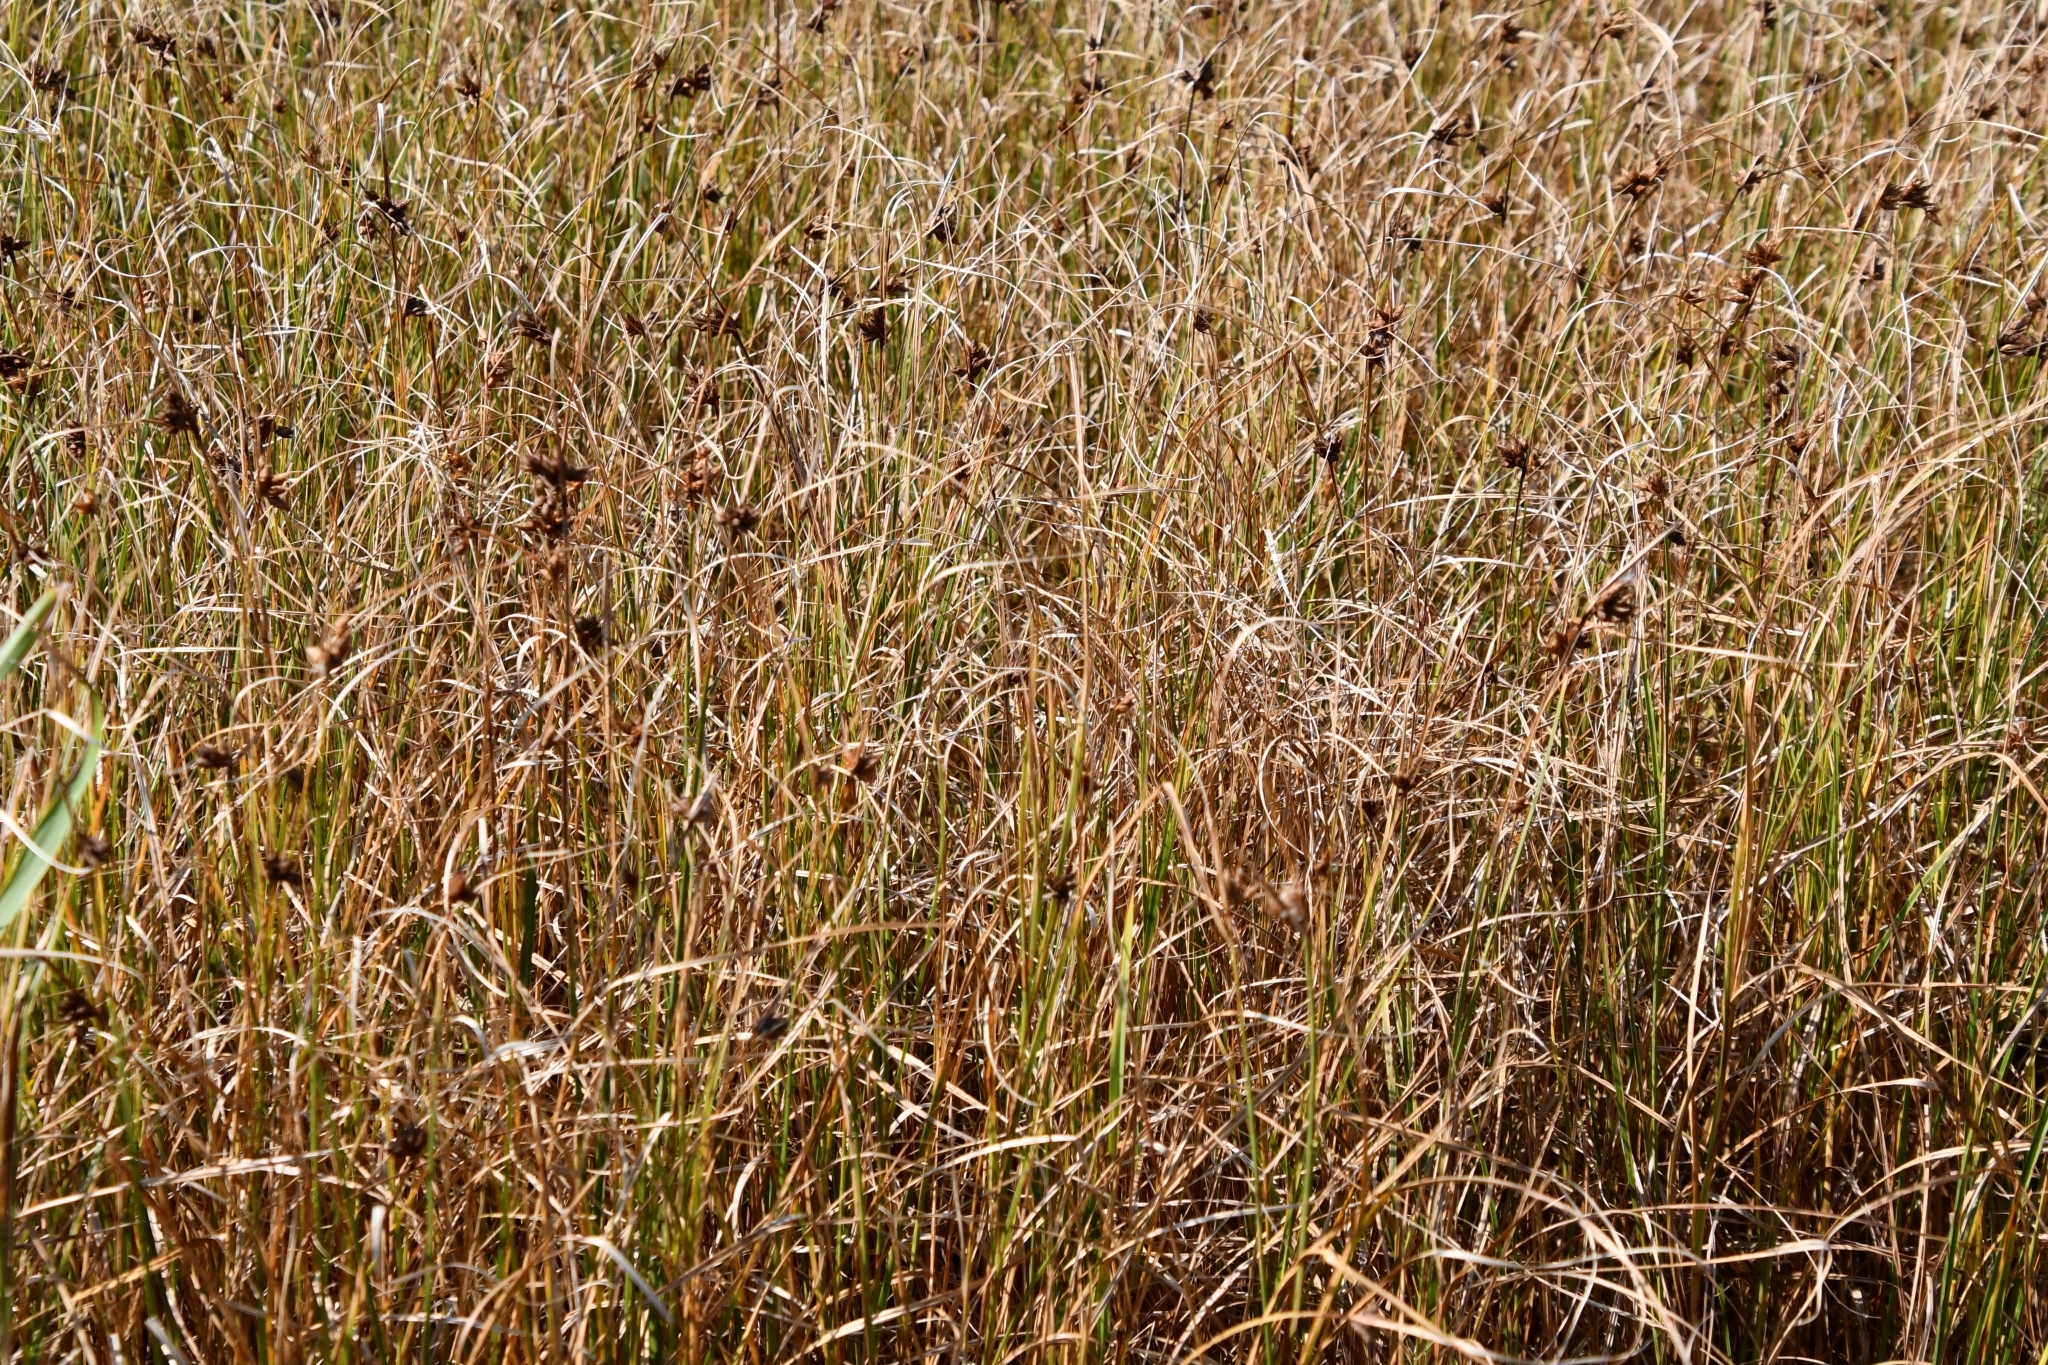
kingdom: Plantae
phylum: Tracheophyta
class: Liliopsida
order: Poales
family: Cyperaceae
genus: Bolboschoenus
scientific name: Bolboschoenus maritimus
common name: Sea club-rush
